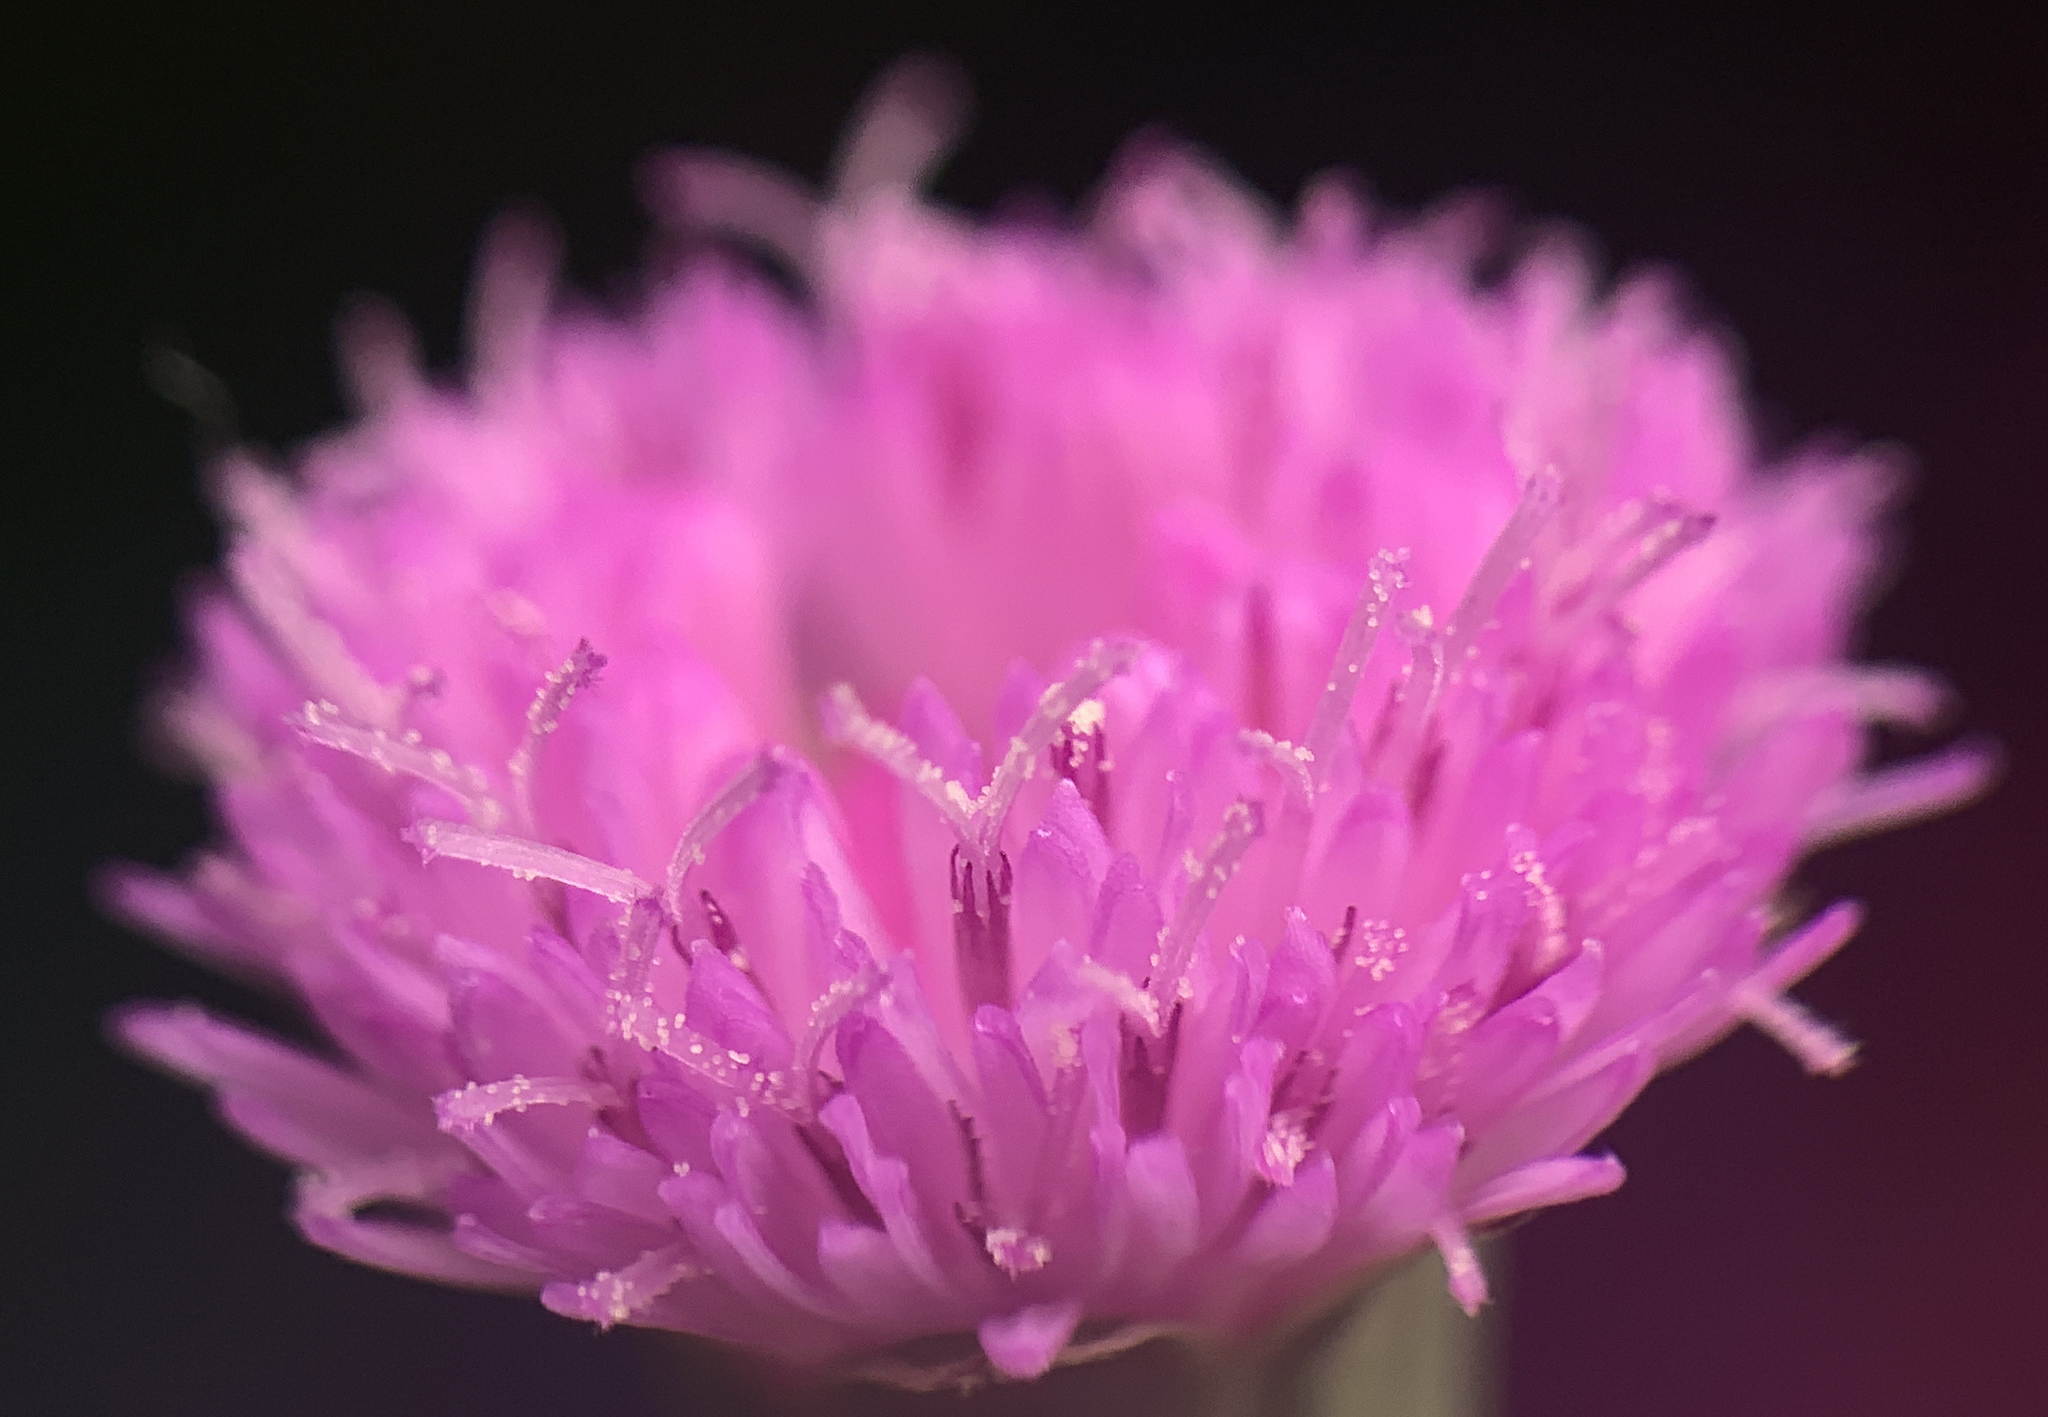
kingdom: Plantae
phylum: Tracheophyta
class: Magnoliopsida
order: Asterales
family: Asteraceae
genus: Emilia
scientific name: Emilia sonchifolia
